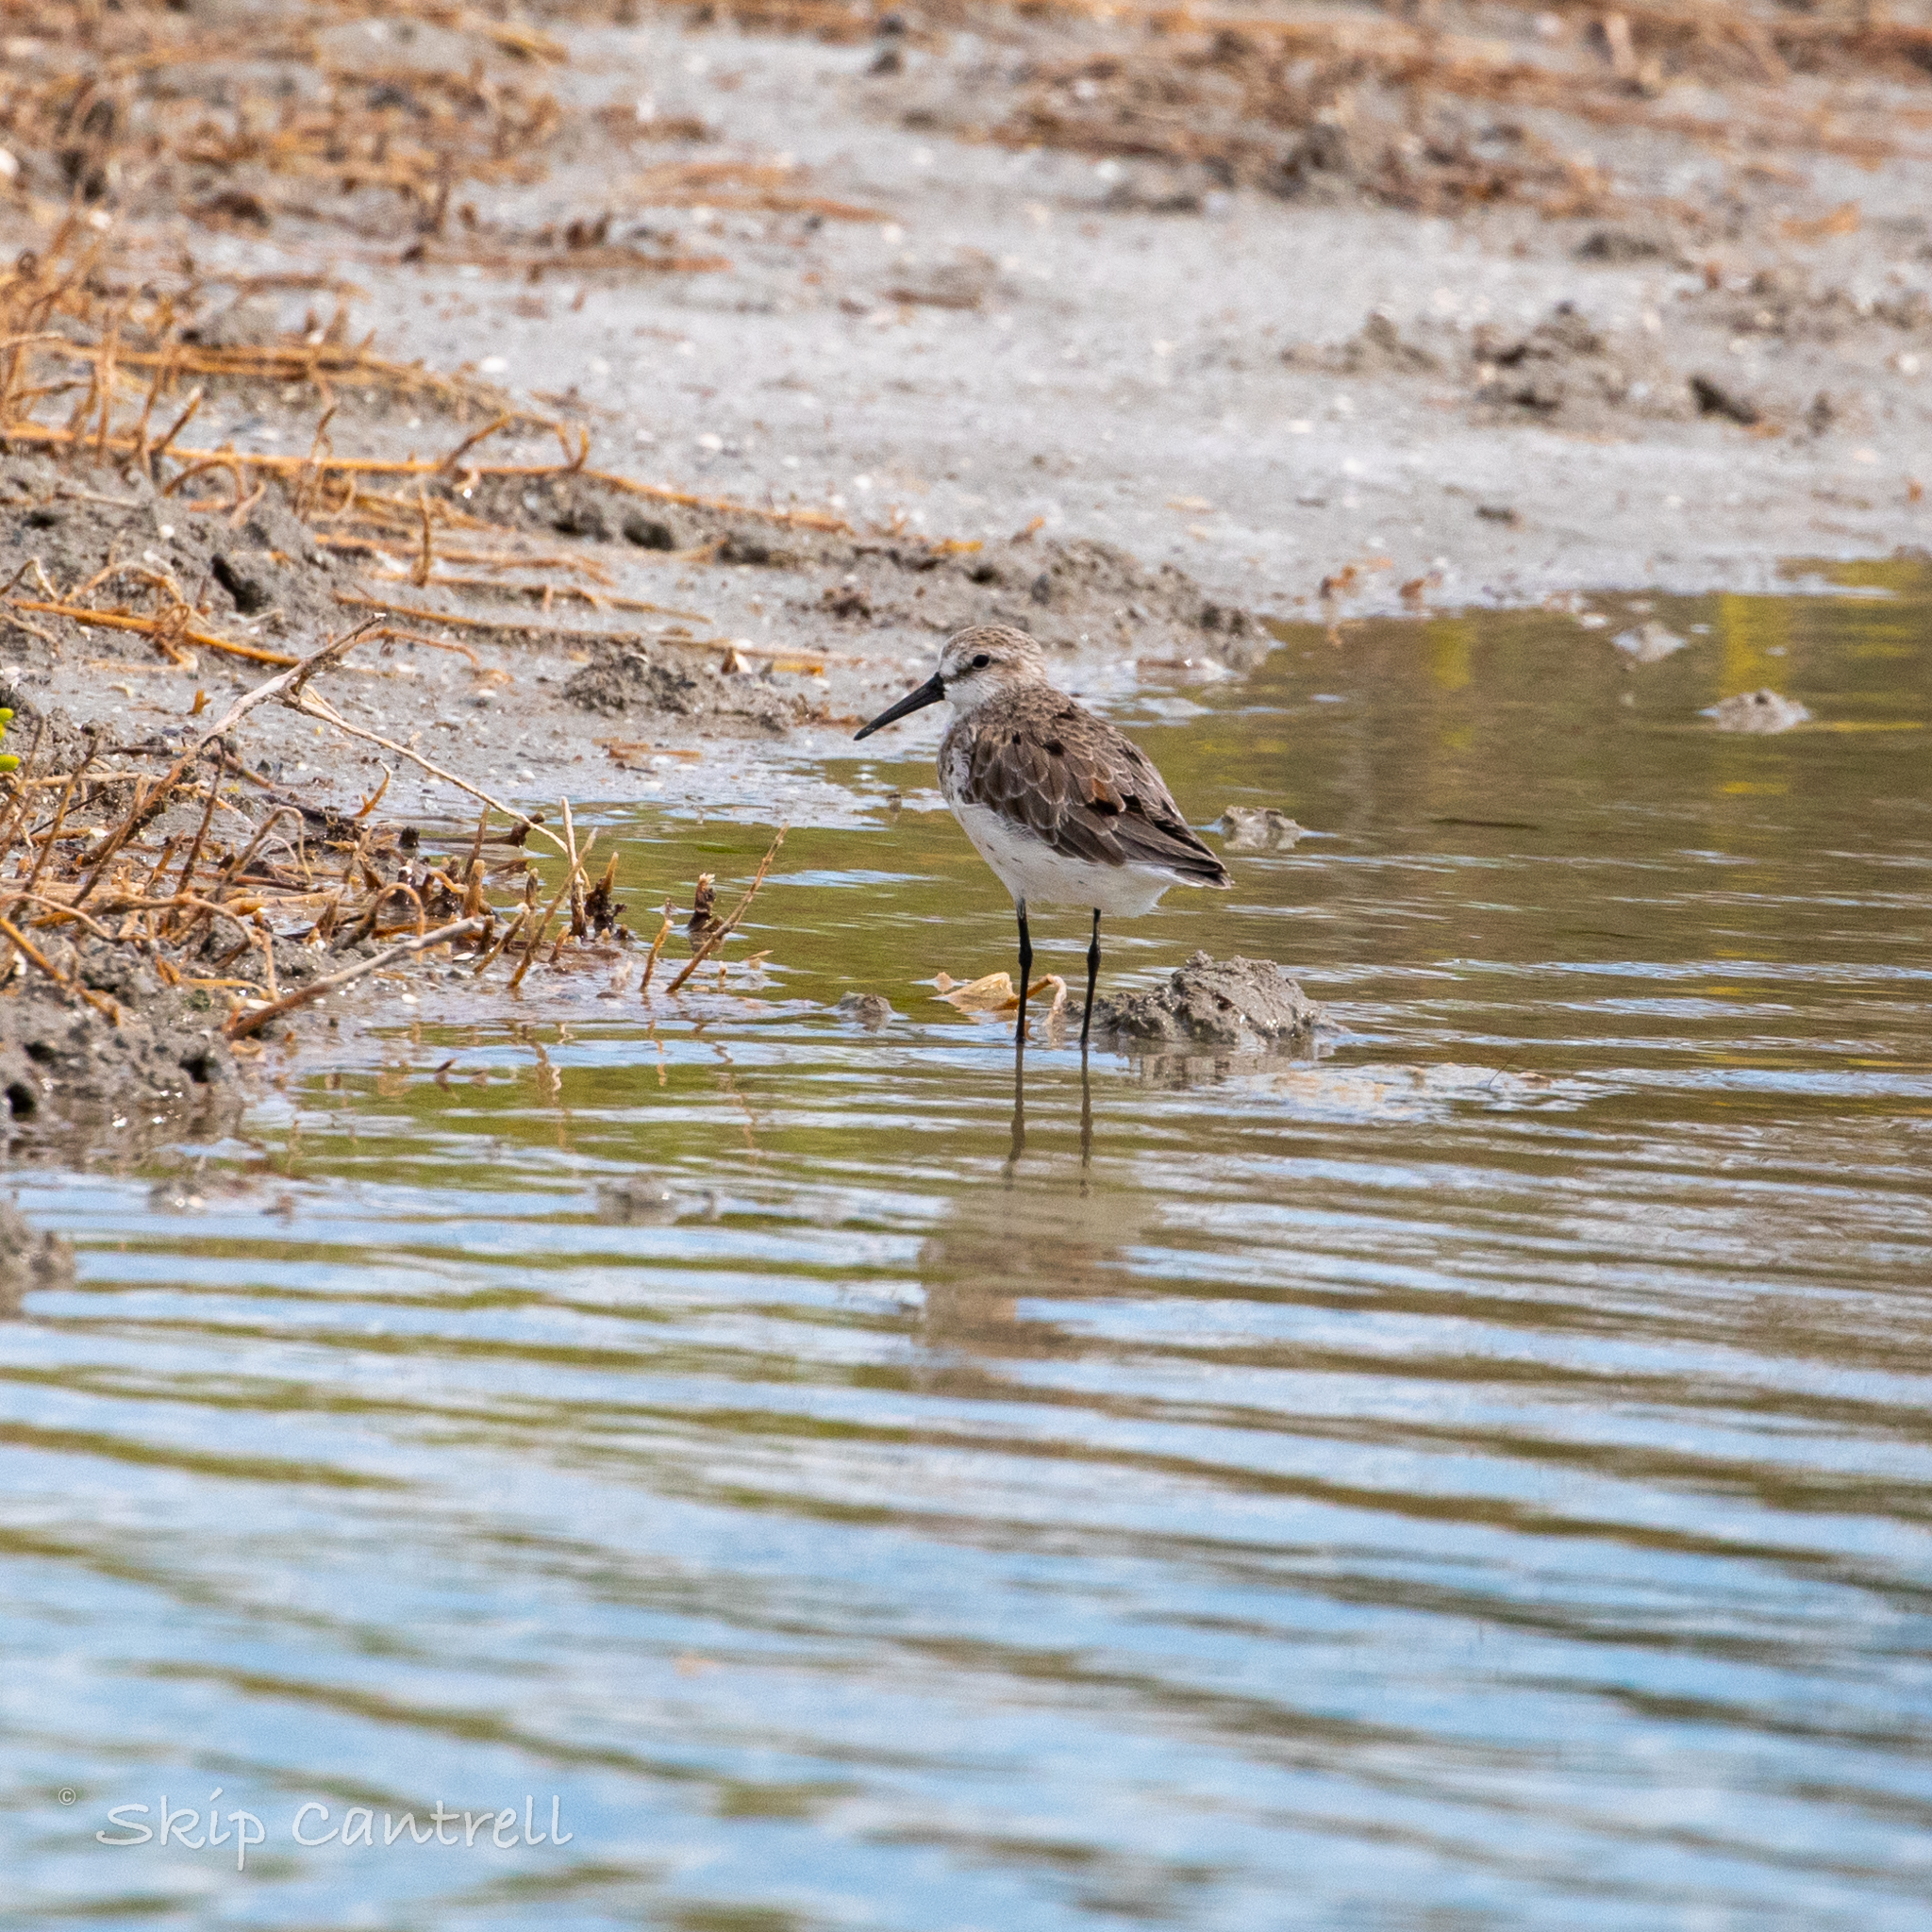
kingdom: Animalia
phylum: Chordata
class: Aves
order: Charadriiformes
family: Scolopacidae
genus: Calidris
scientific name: Calidris mauri
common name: Western sandpiper
